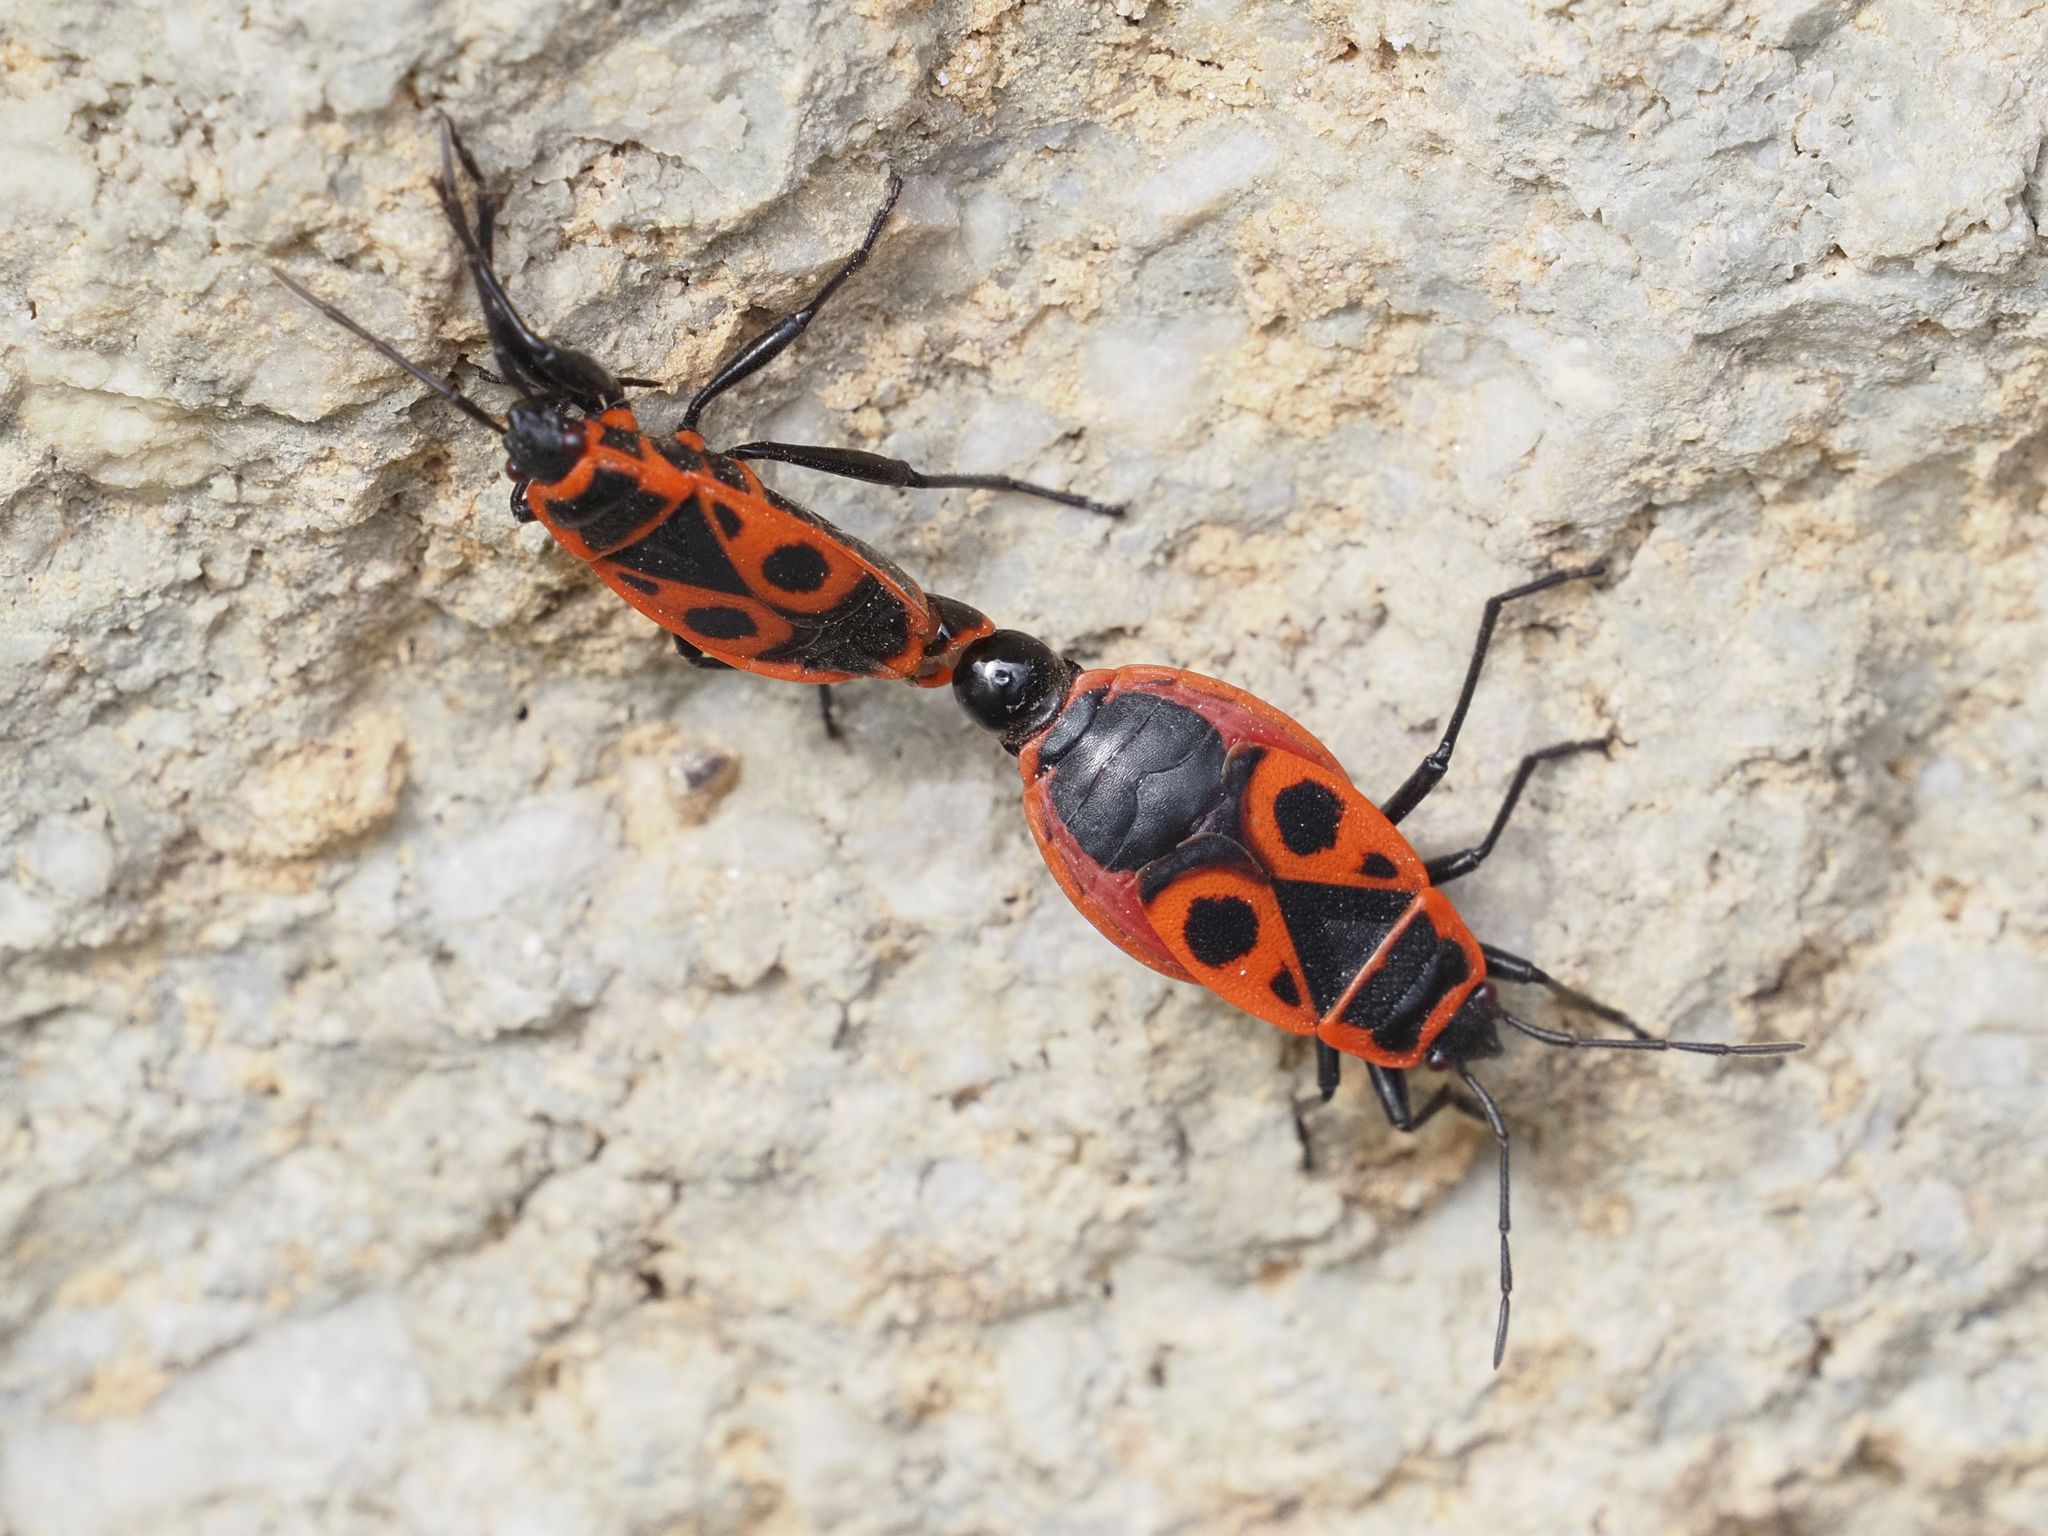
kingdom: Animalia
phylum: Arthropoda
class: Insecta
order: Hemiptera
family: Pyrrhocoridae
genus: Pyrrhocoris
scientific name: Pyrrhocoris apterus
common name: Firebug
